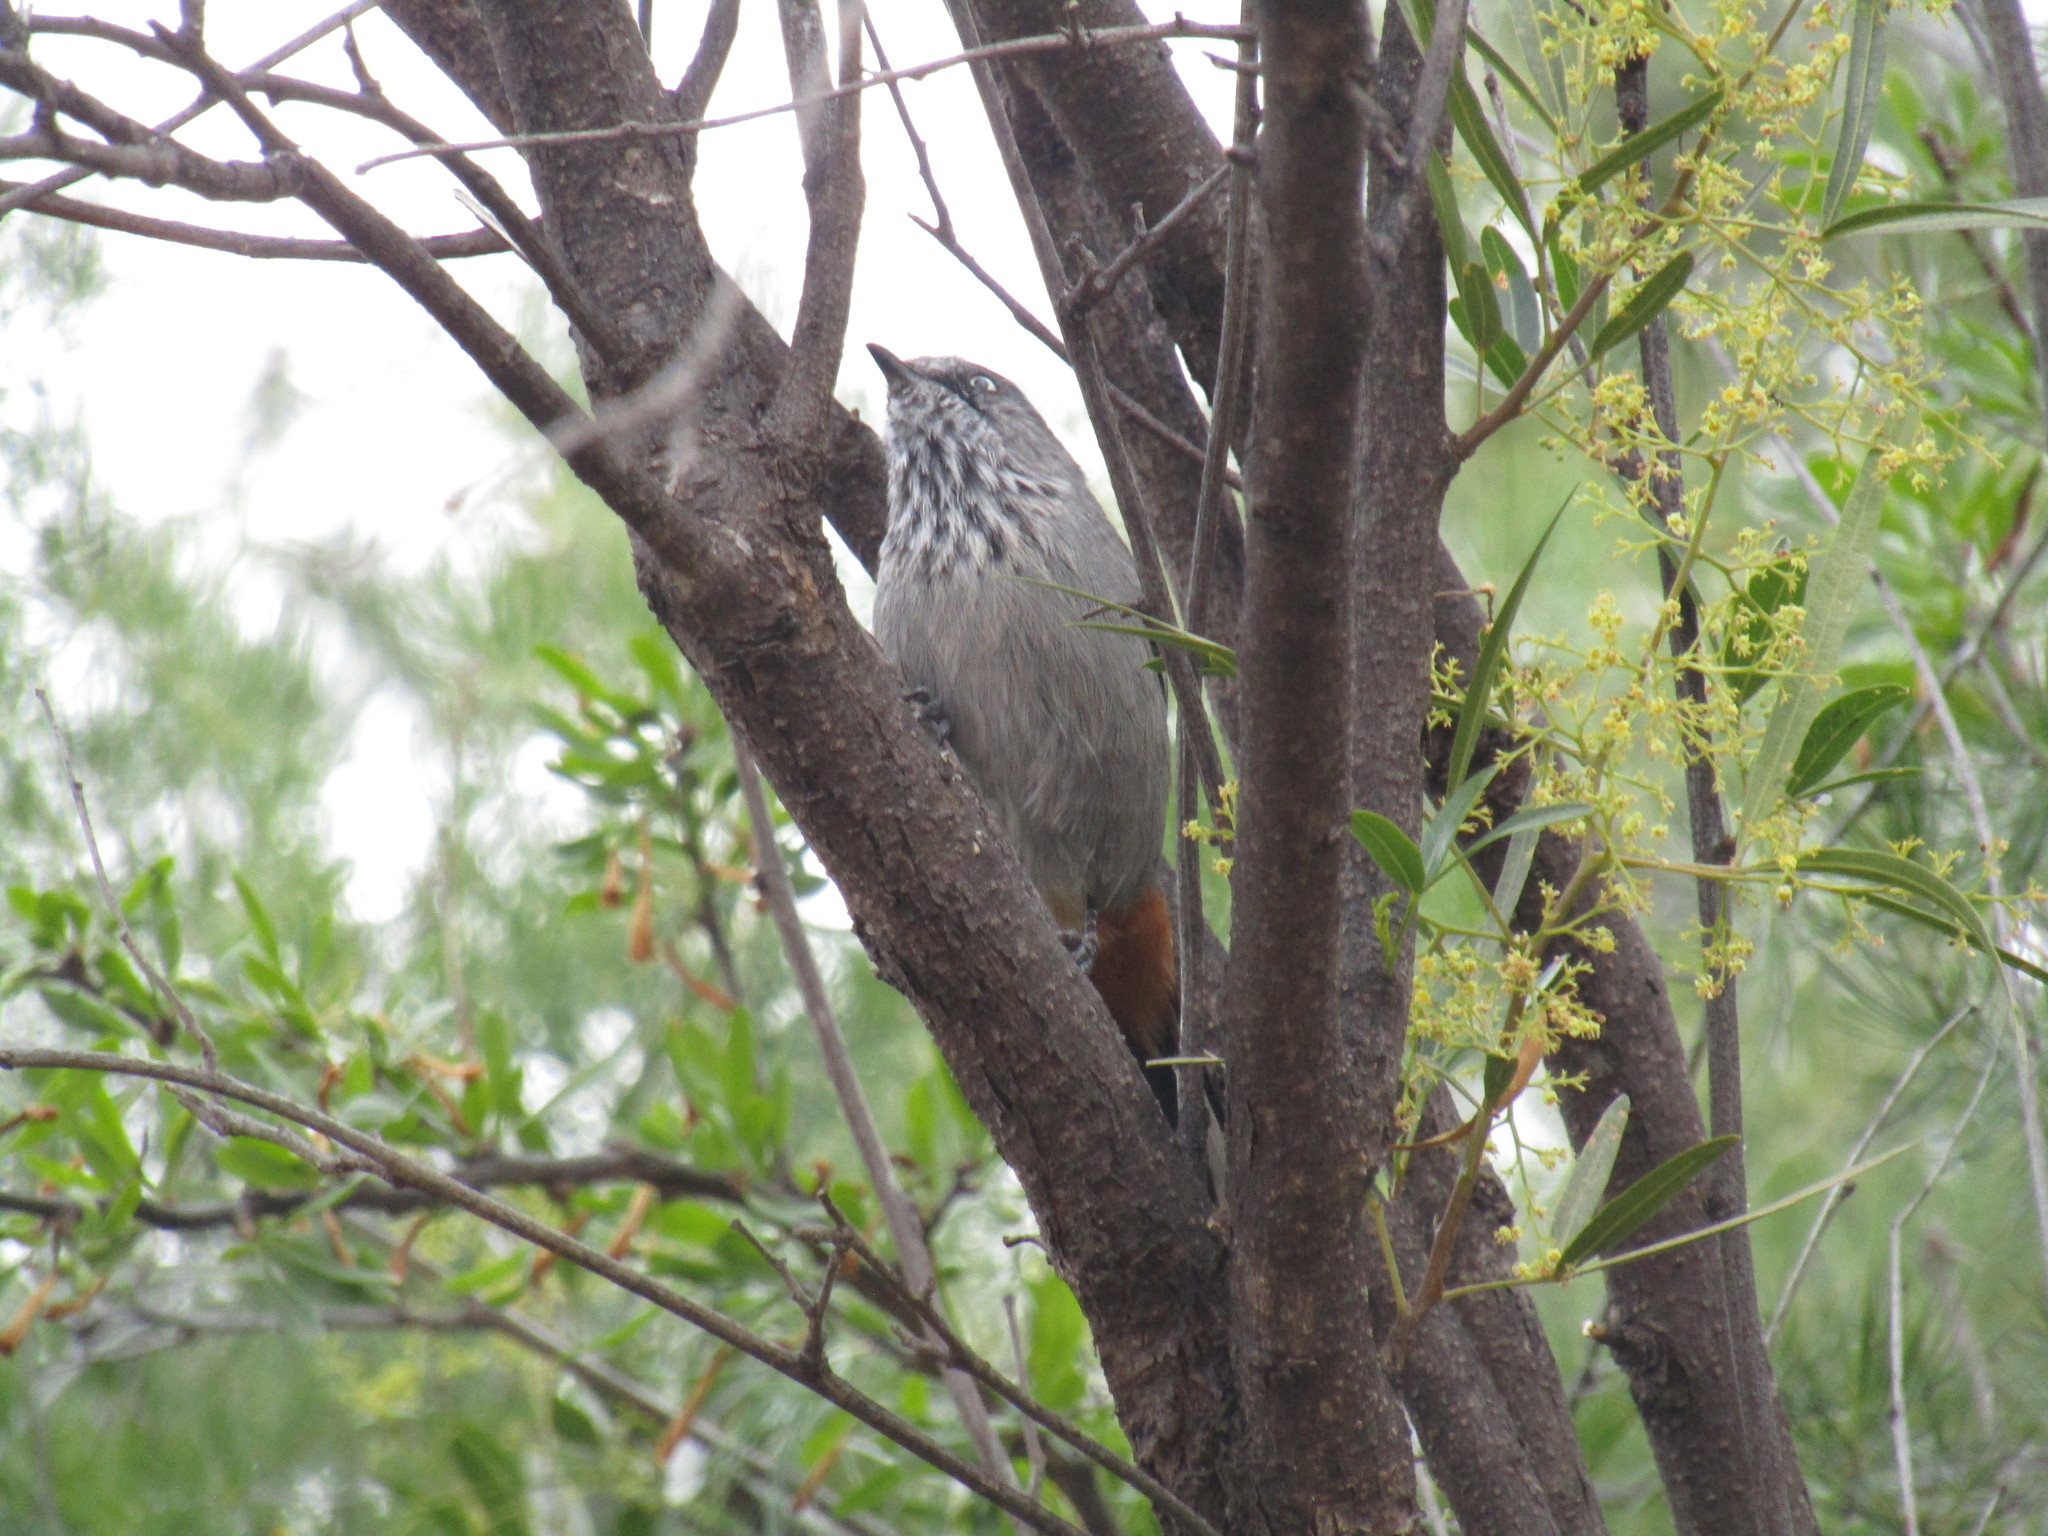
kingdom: Animalia
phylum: Chordata
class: Aves
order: Passeriformes
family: Sylviidae
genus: Curruca
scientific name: Curruca subcoerulea
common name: Chestnut-vented warbler
